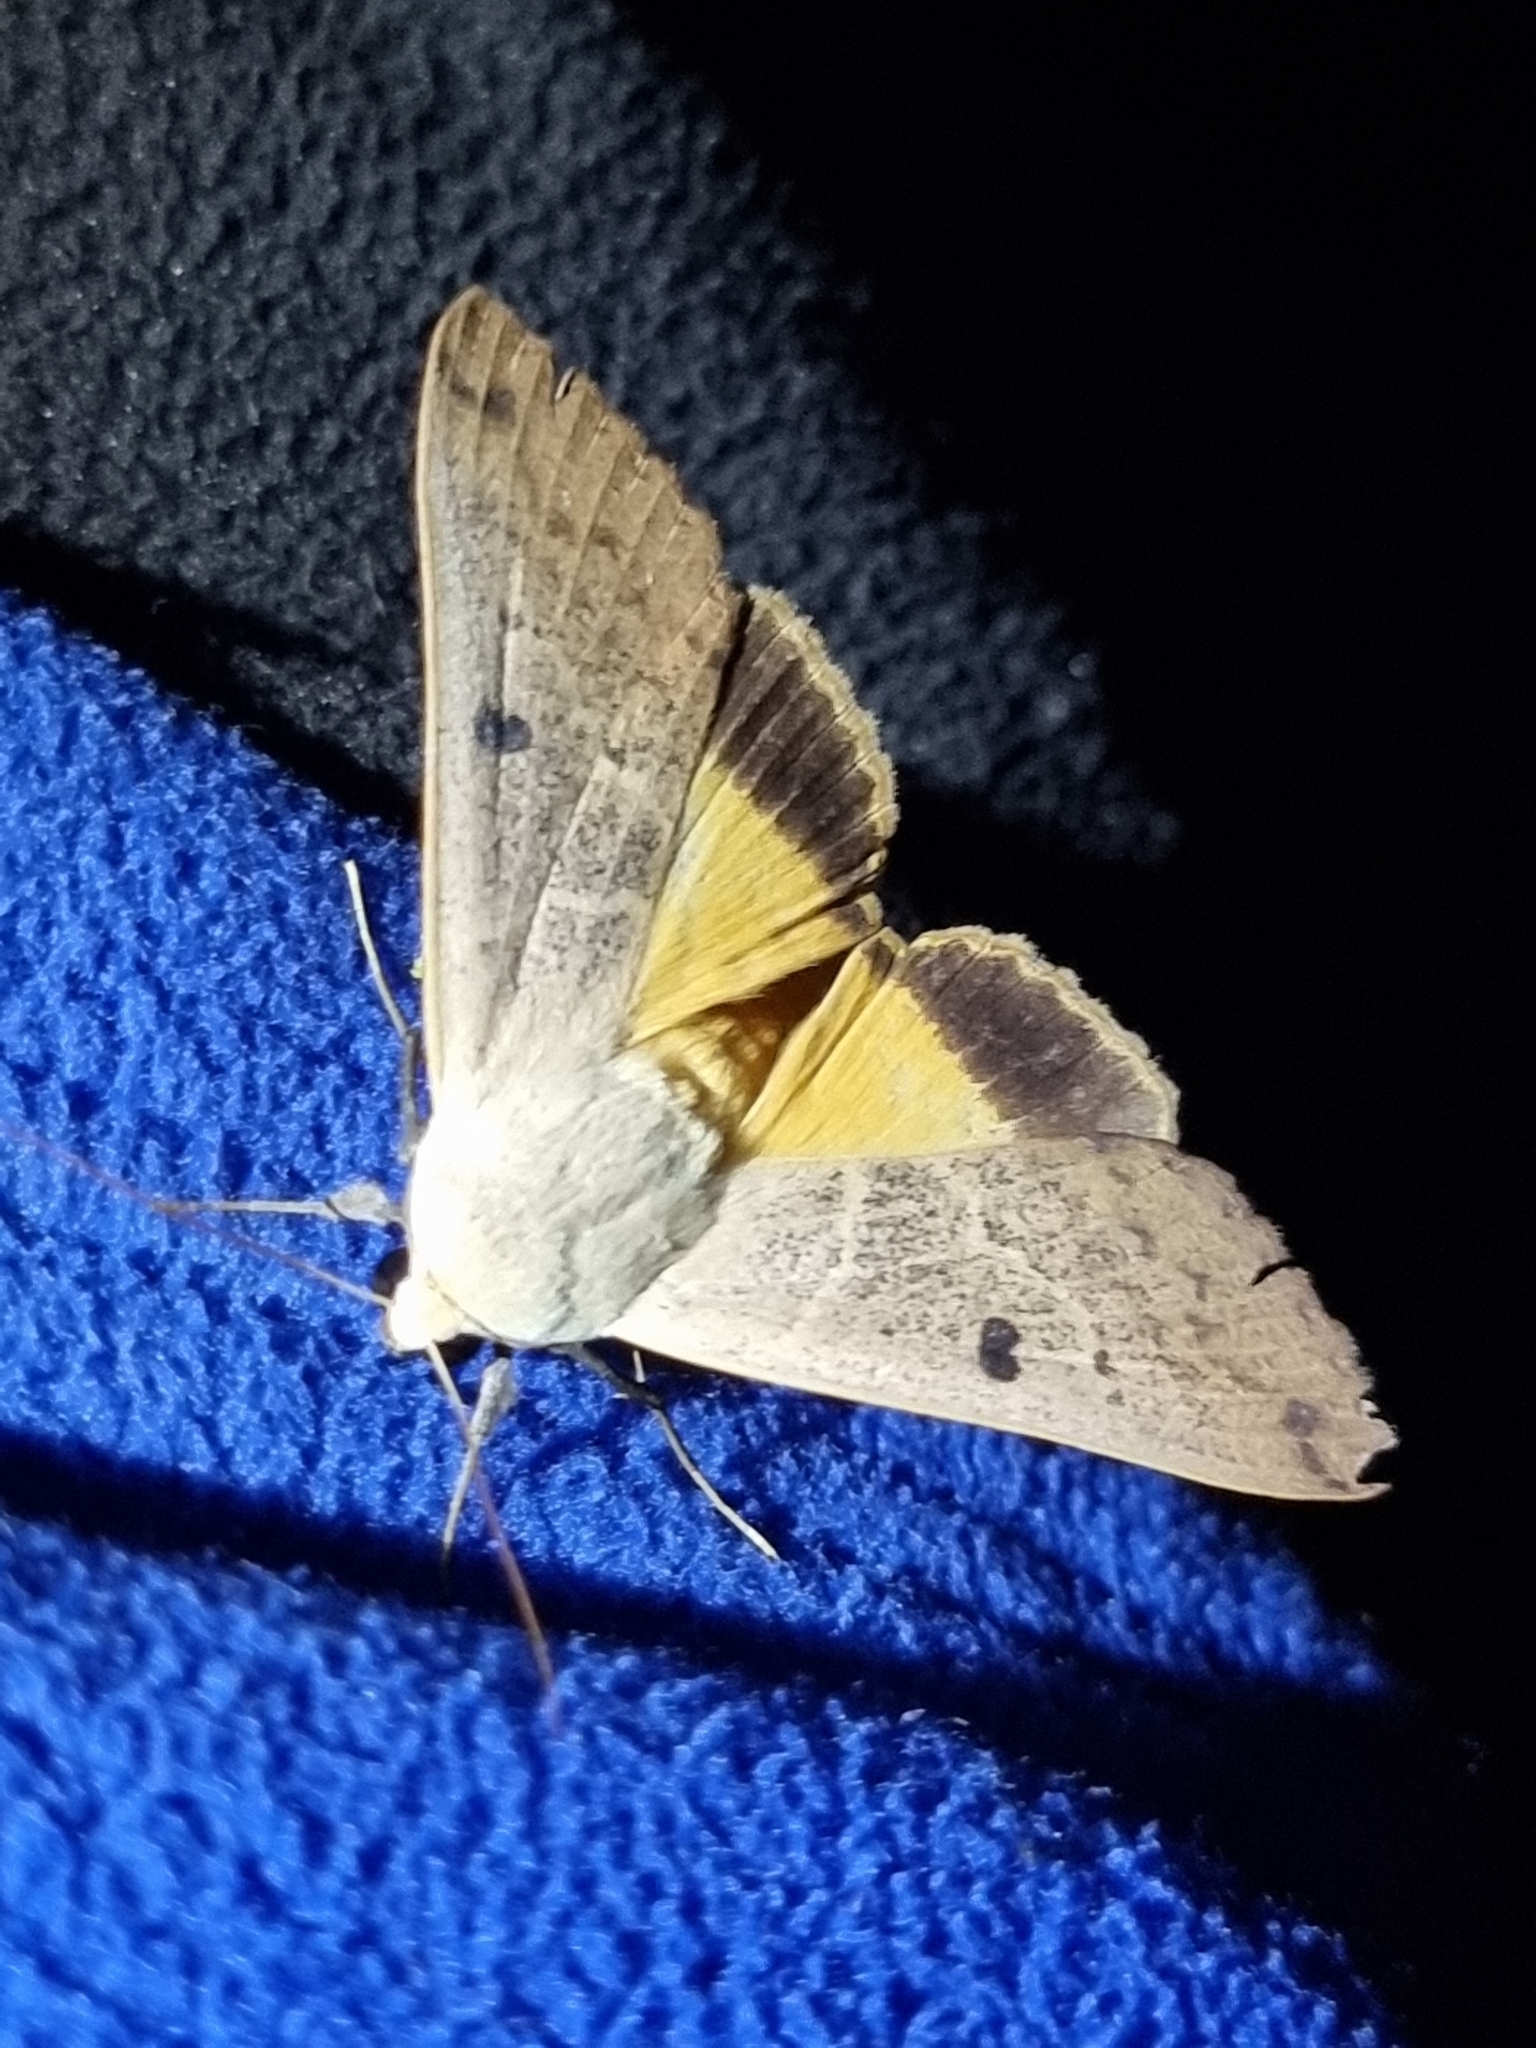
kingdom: Animalia
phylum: Arthropoda
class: Insecta
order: Lepidoptera
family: Erebidae
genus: Ophiusa
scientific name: Ophiusa disjungens
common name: Moth
